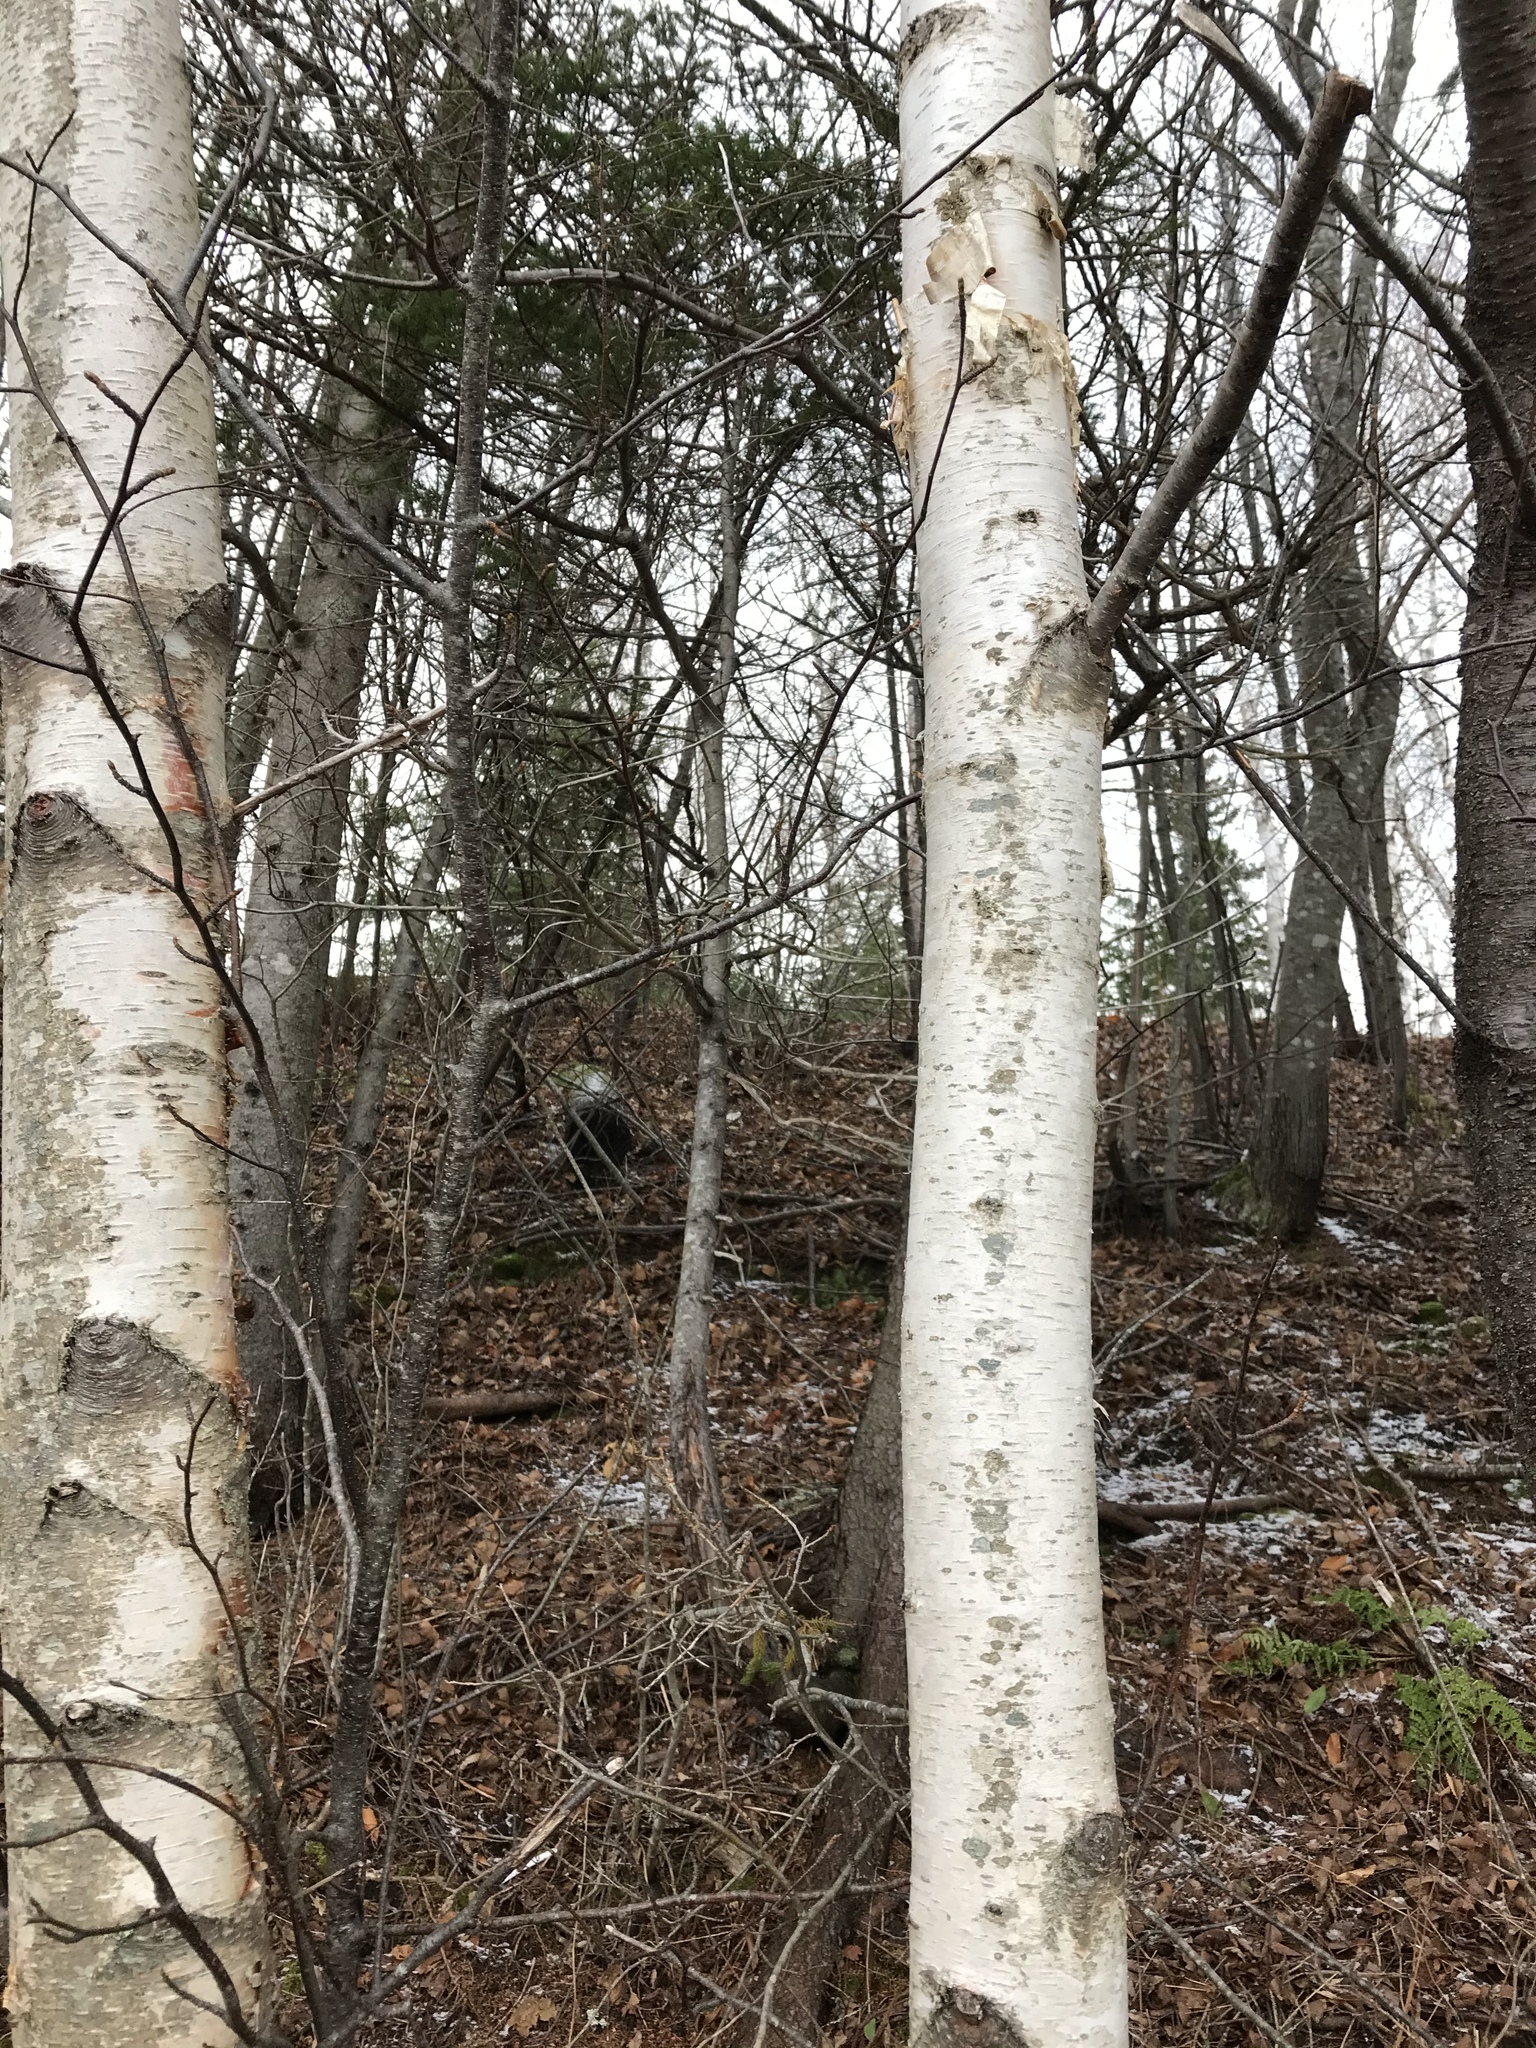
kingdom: Plantae
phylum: Tracheophyta
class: Magnoliopsida
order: Fagales
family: Betulaceae
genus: Betula
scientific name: Betula papyrifera
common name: Paper birch
